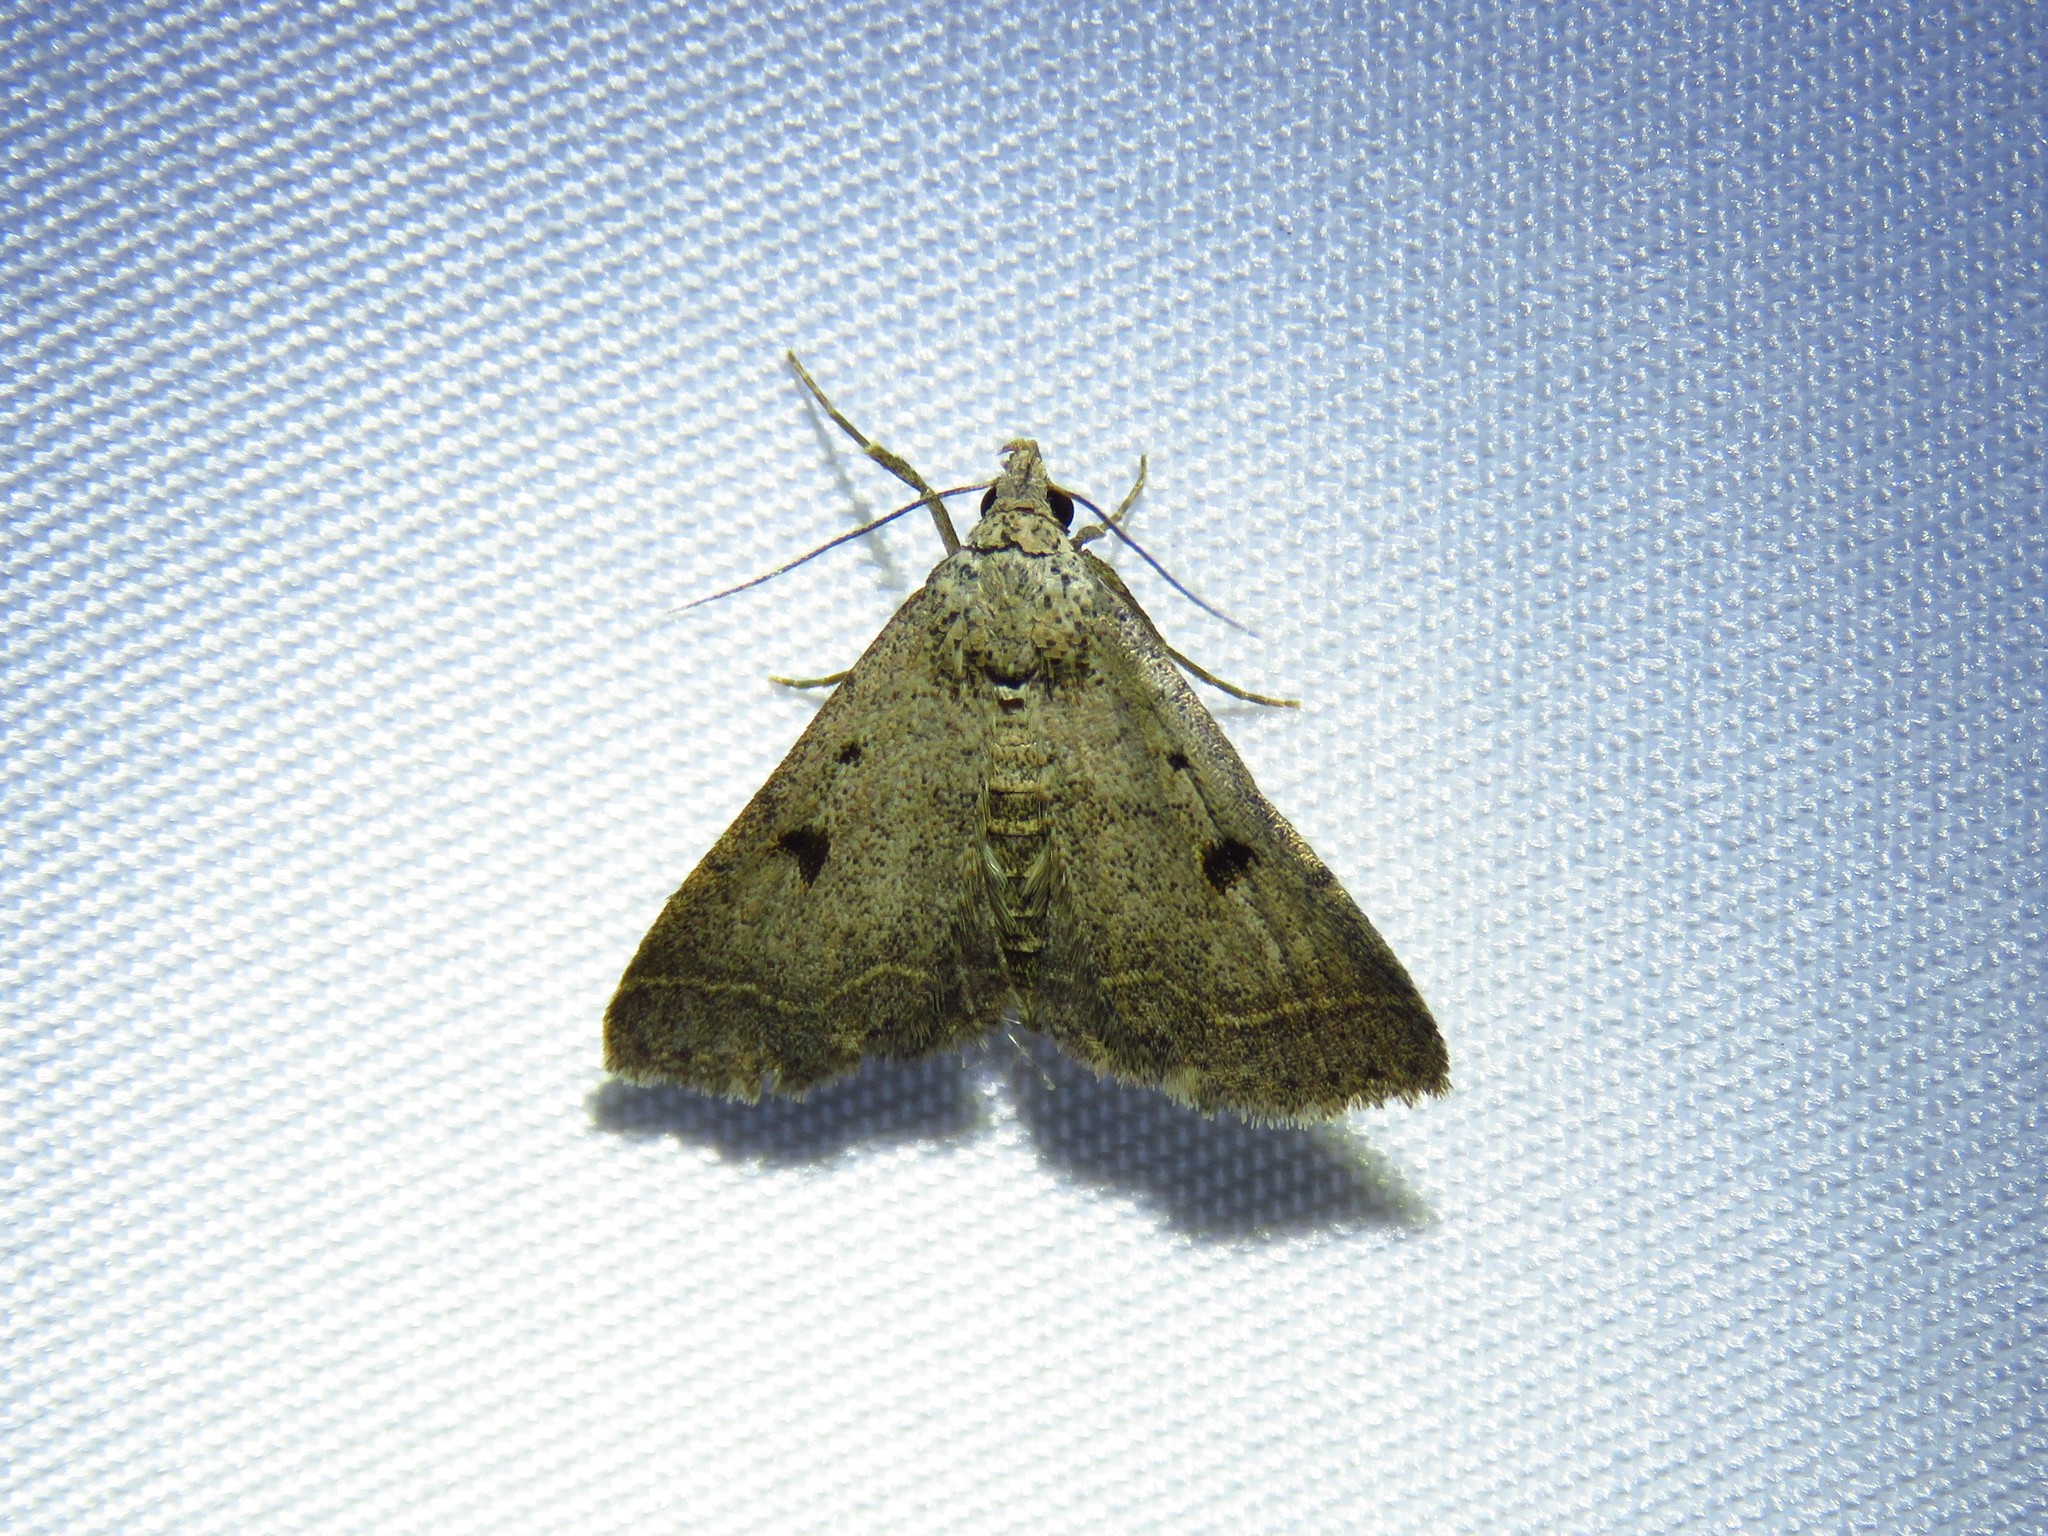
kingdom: Animalia
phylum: Arthropoda
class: Insecta
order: Lepidoptera
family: Erebidae
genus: Bleptina
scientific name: Bleptina caradrinalis
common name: Bent-winged owlet
